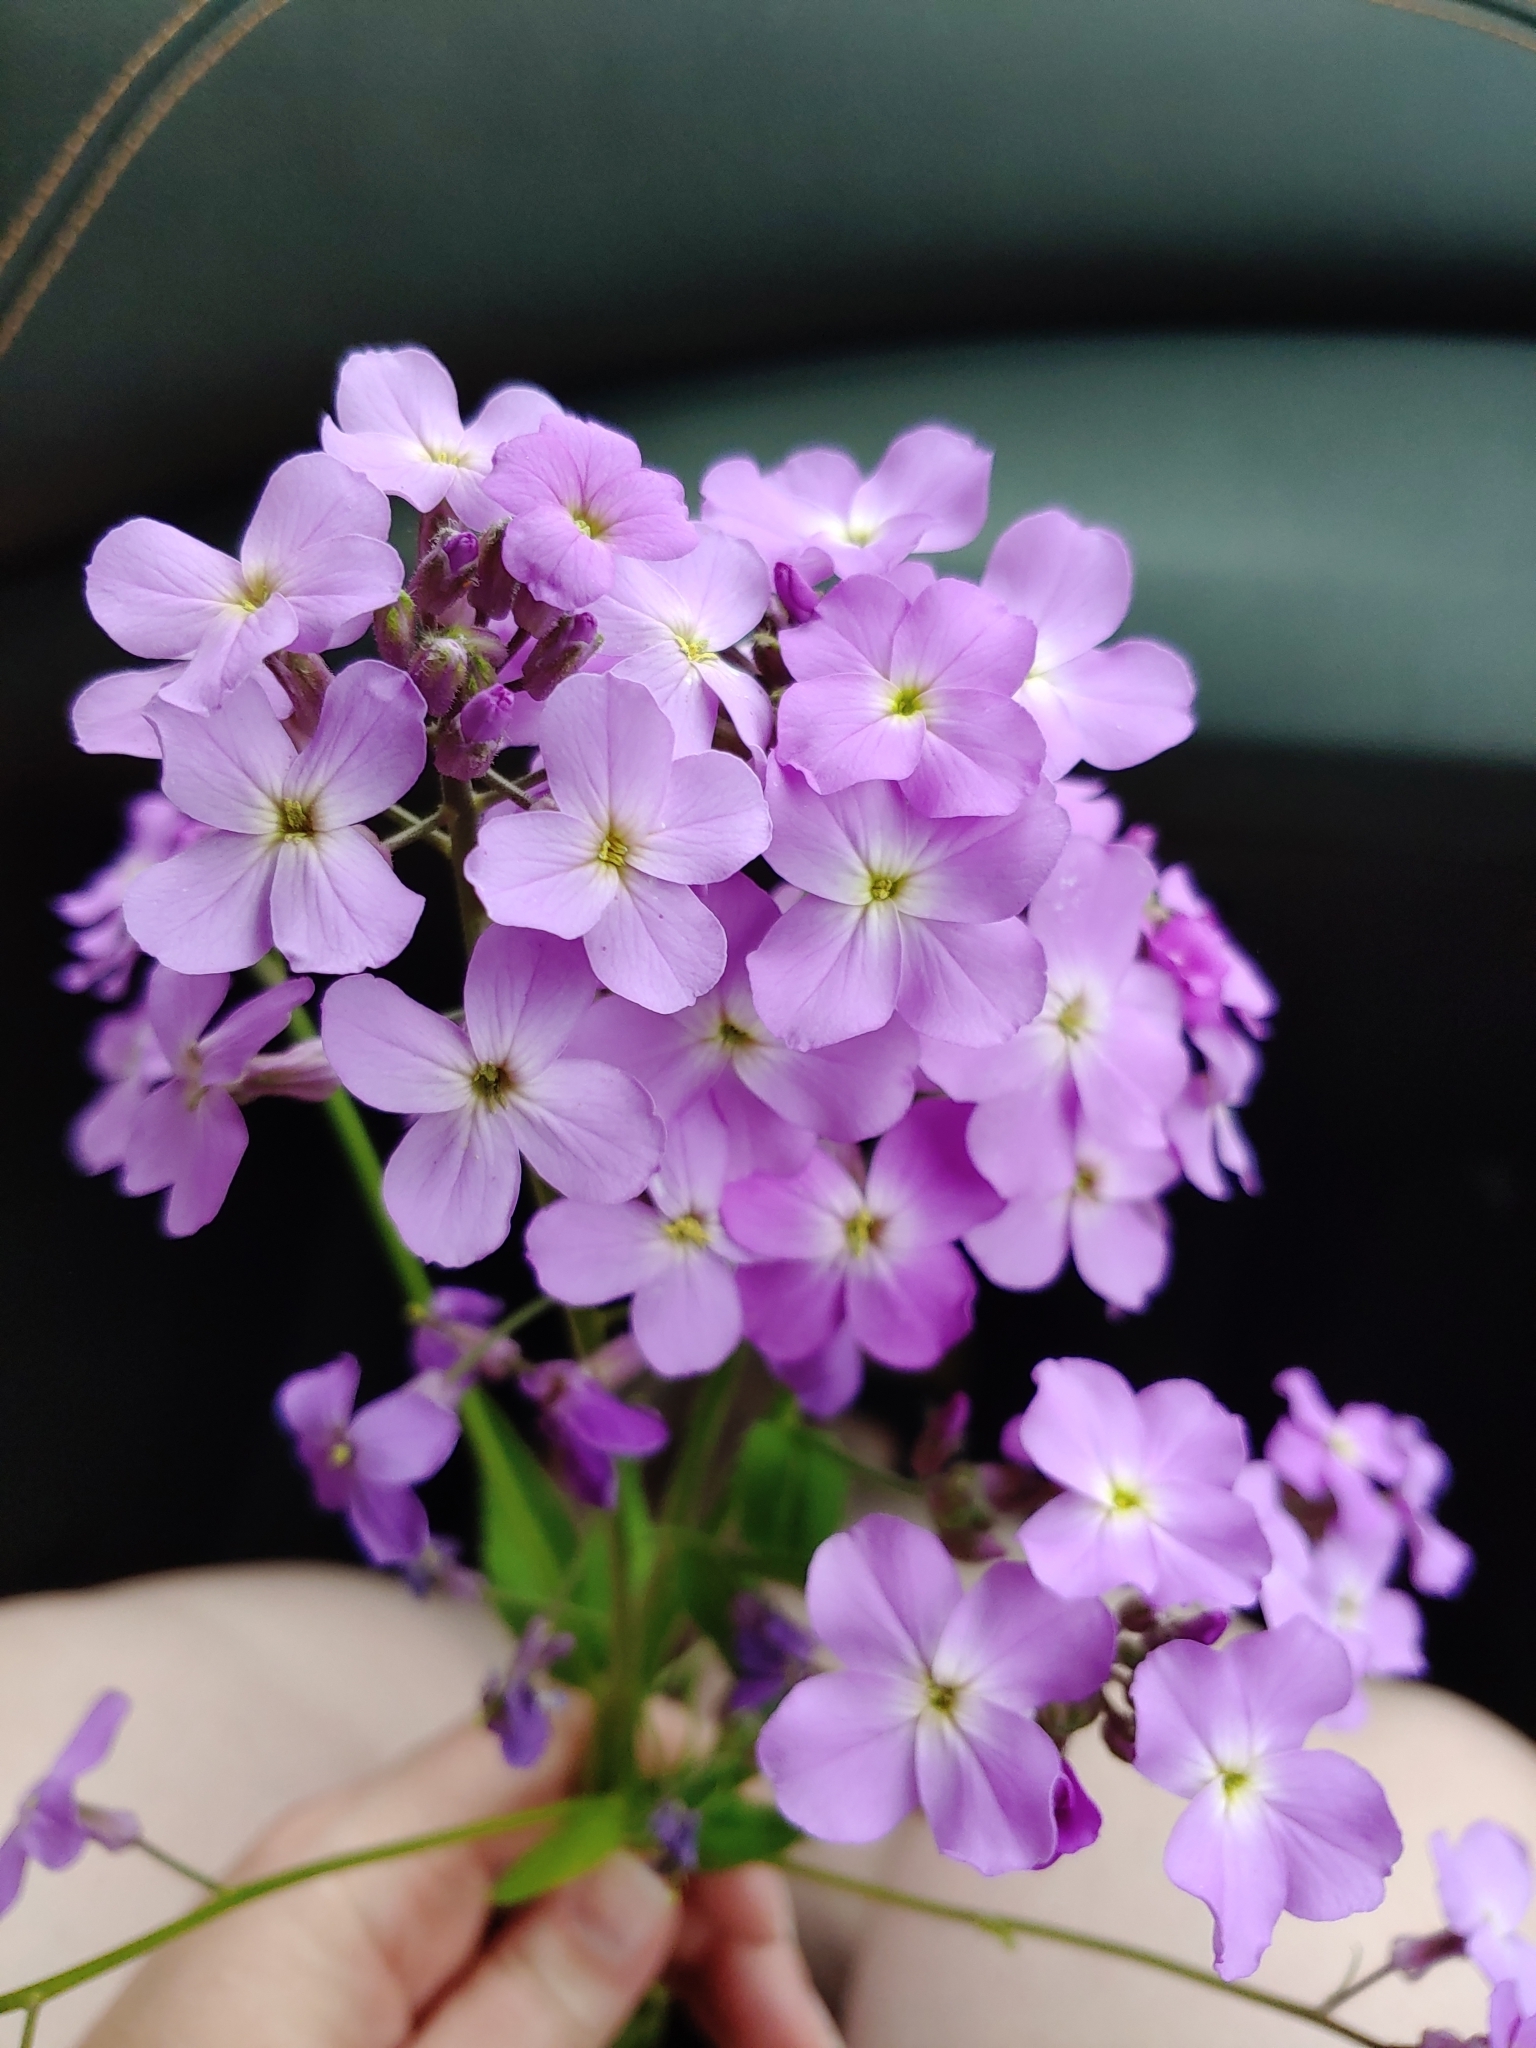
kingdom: Plantae
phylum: Tracheophyta
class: Magnoliopsida
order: Brassicales
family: Brassicaceae
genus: Hesperis
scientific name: Hesperis matronalis
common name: Dame's-violet
